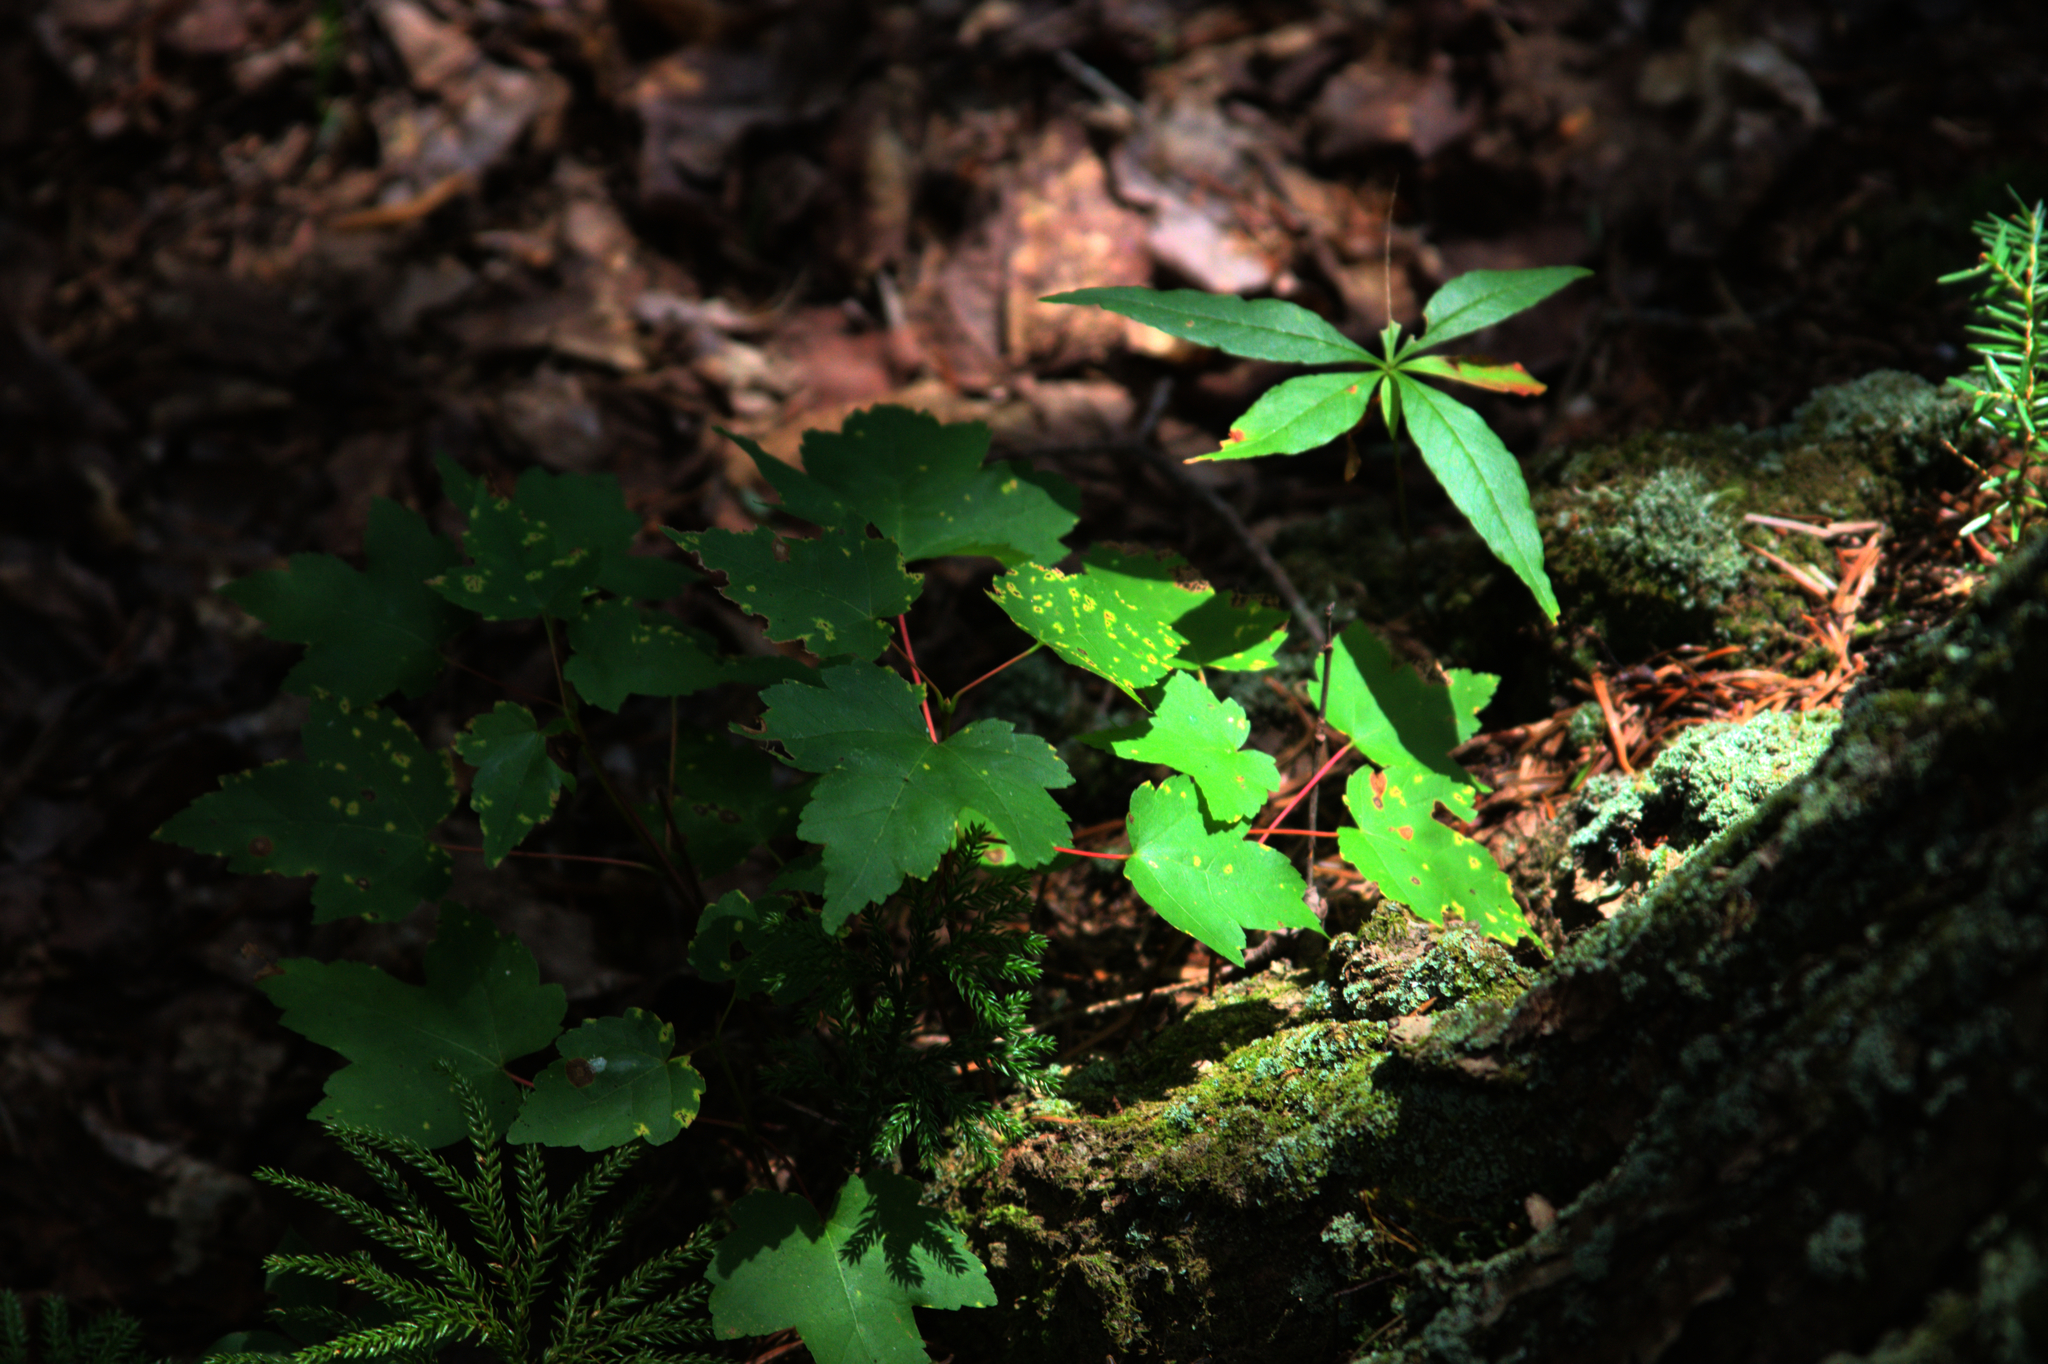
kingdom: Plantae
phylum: Tracheophyta
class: Magnoliopsida
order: Sapindales
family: Sapindaceae
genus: Acer
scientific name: Acer rubrum
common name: Red maple
